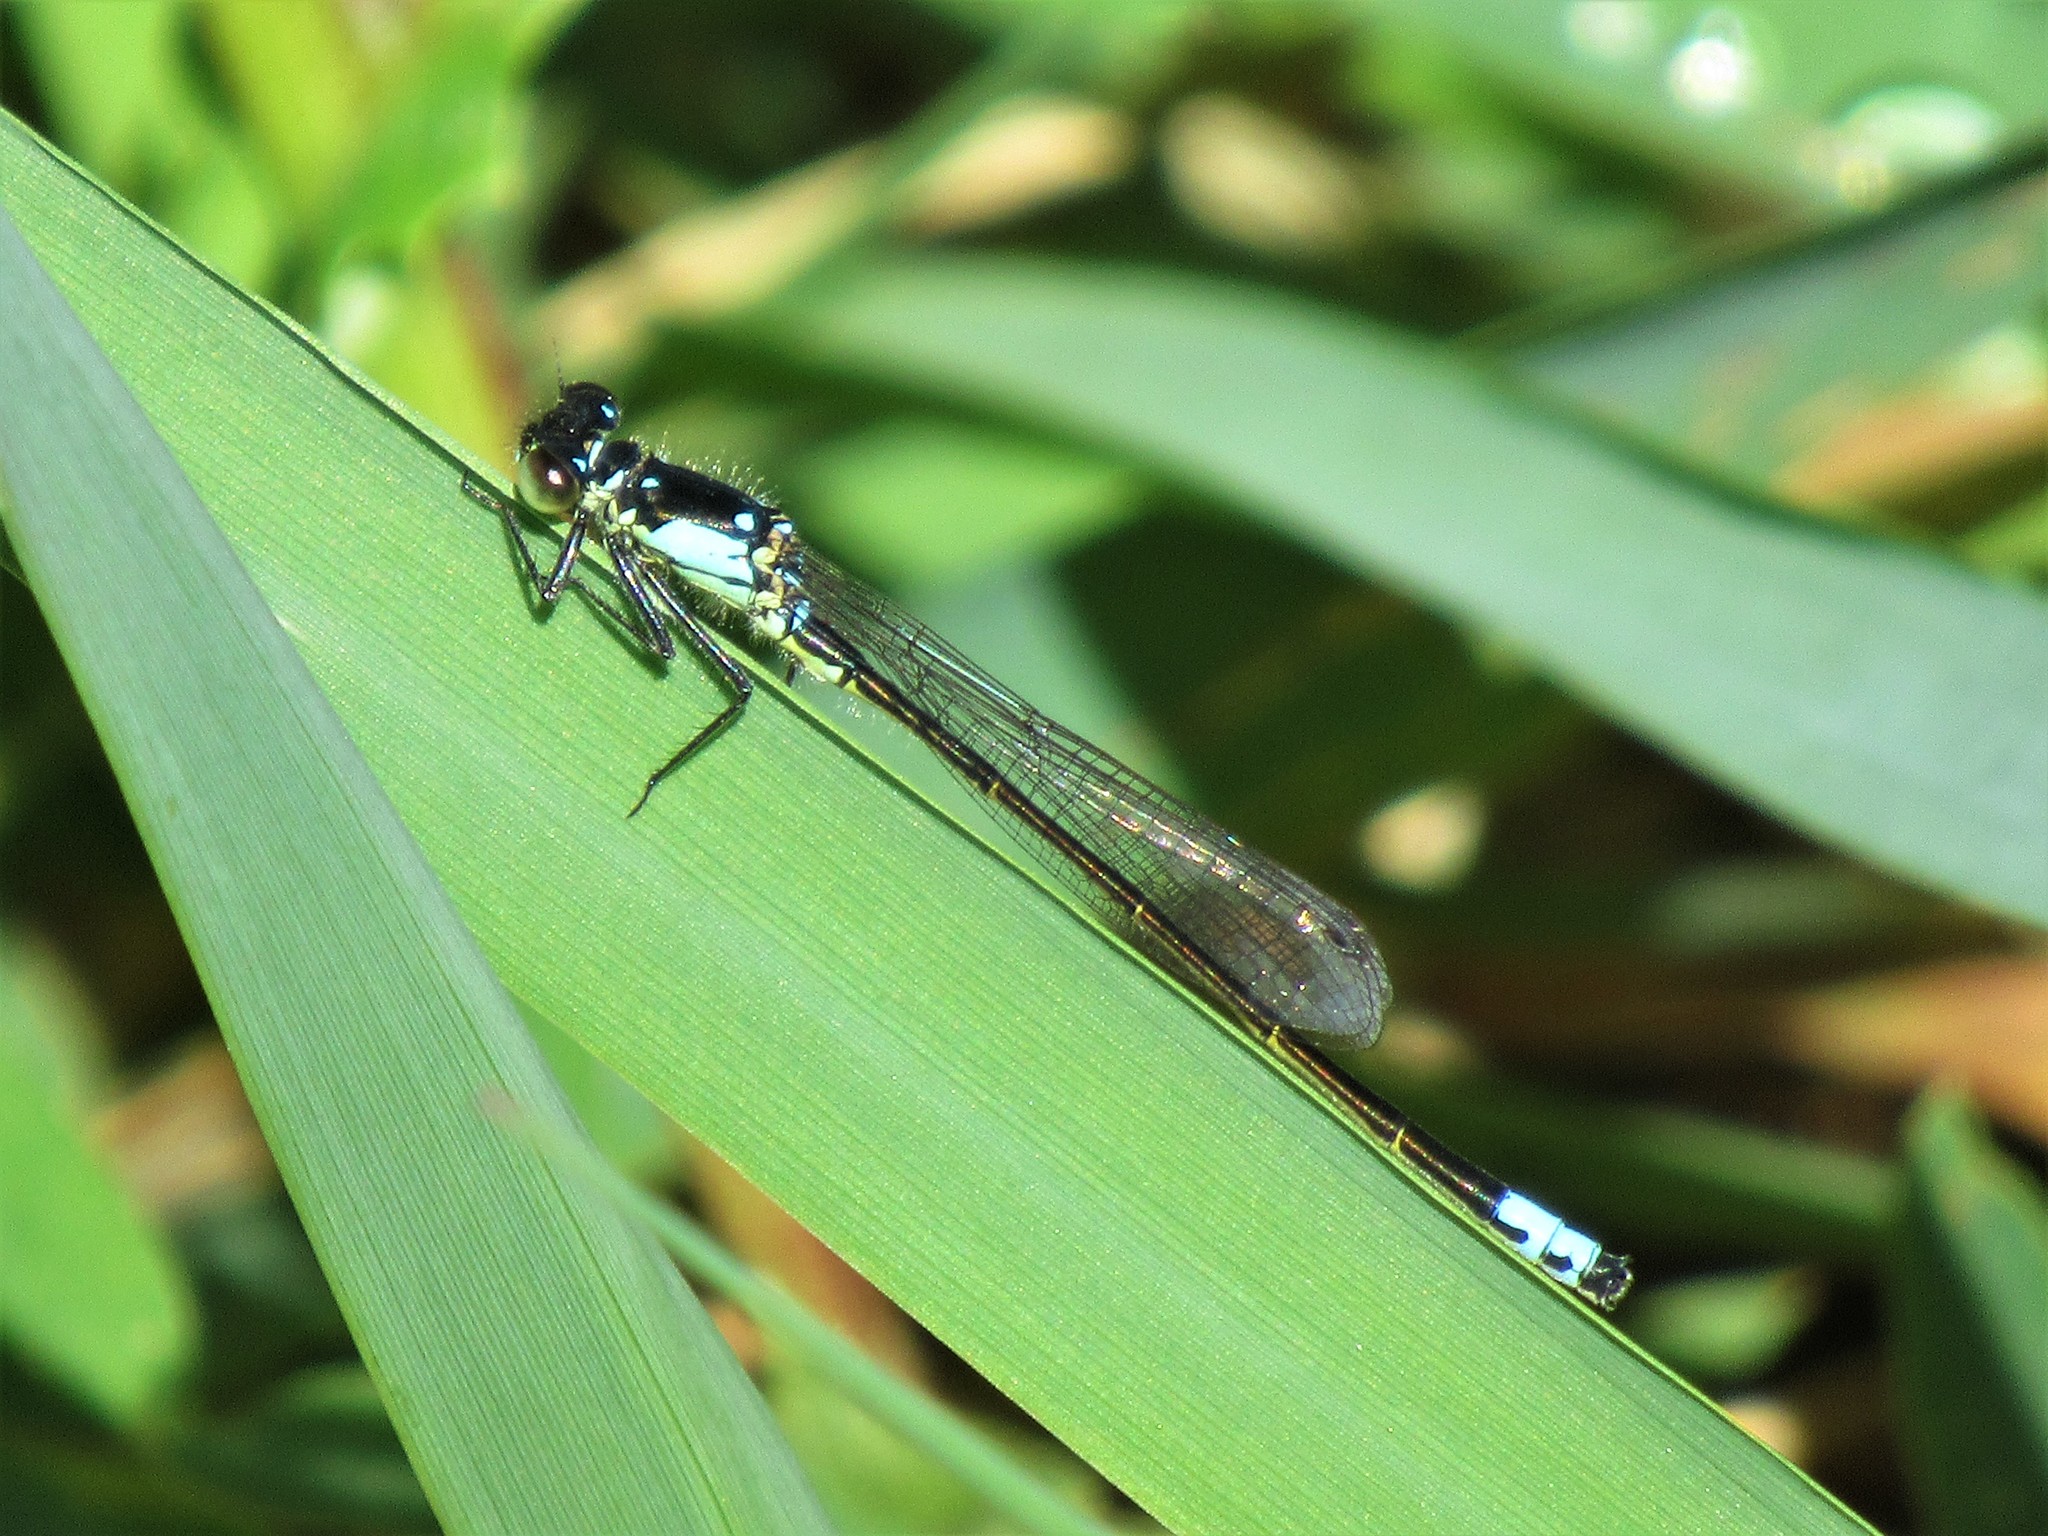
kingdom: Animalia
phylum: Arthropoda
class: Insecta
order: Odonata
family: Coenagrionidae
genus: Ischnura
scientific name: Ischnura cervula
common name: Pacific forktail
